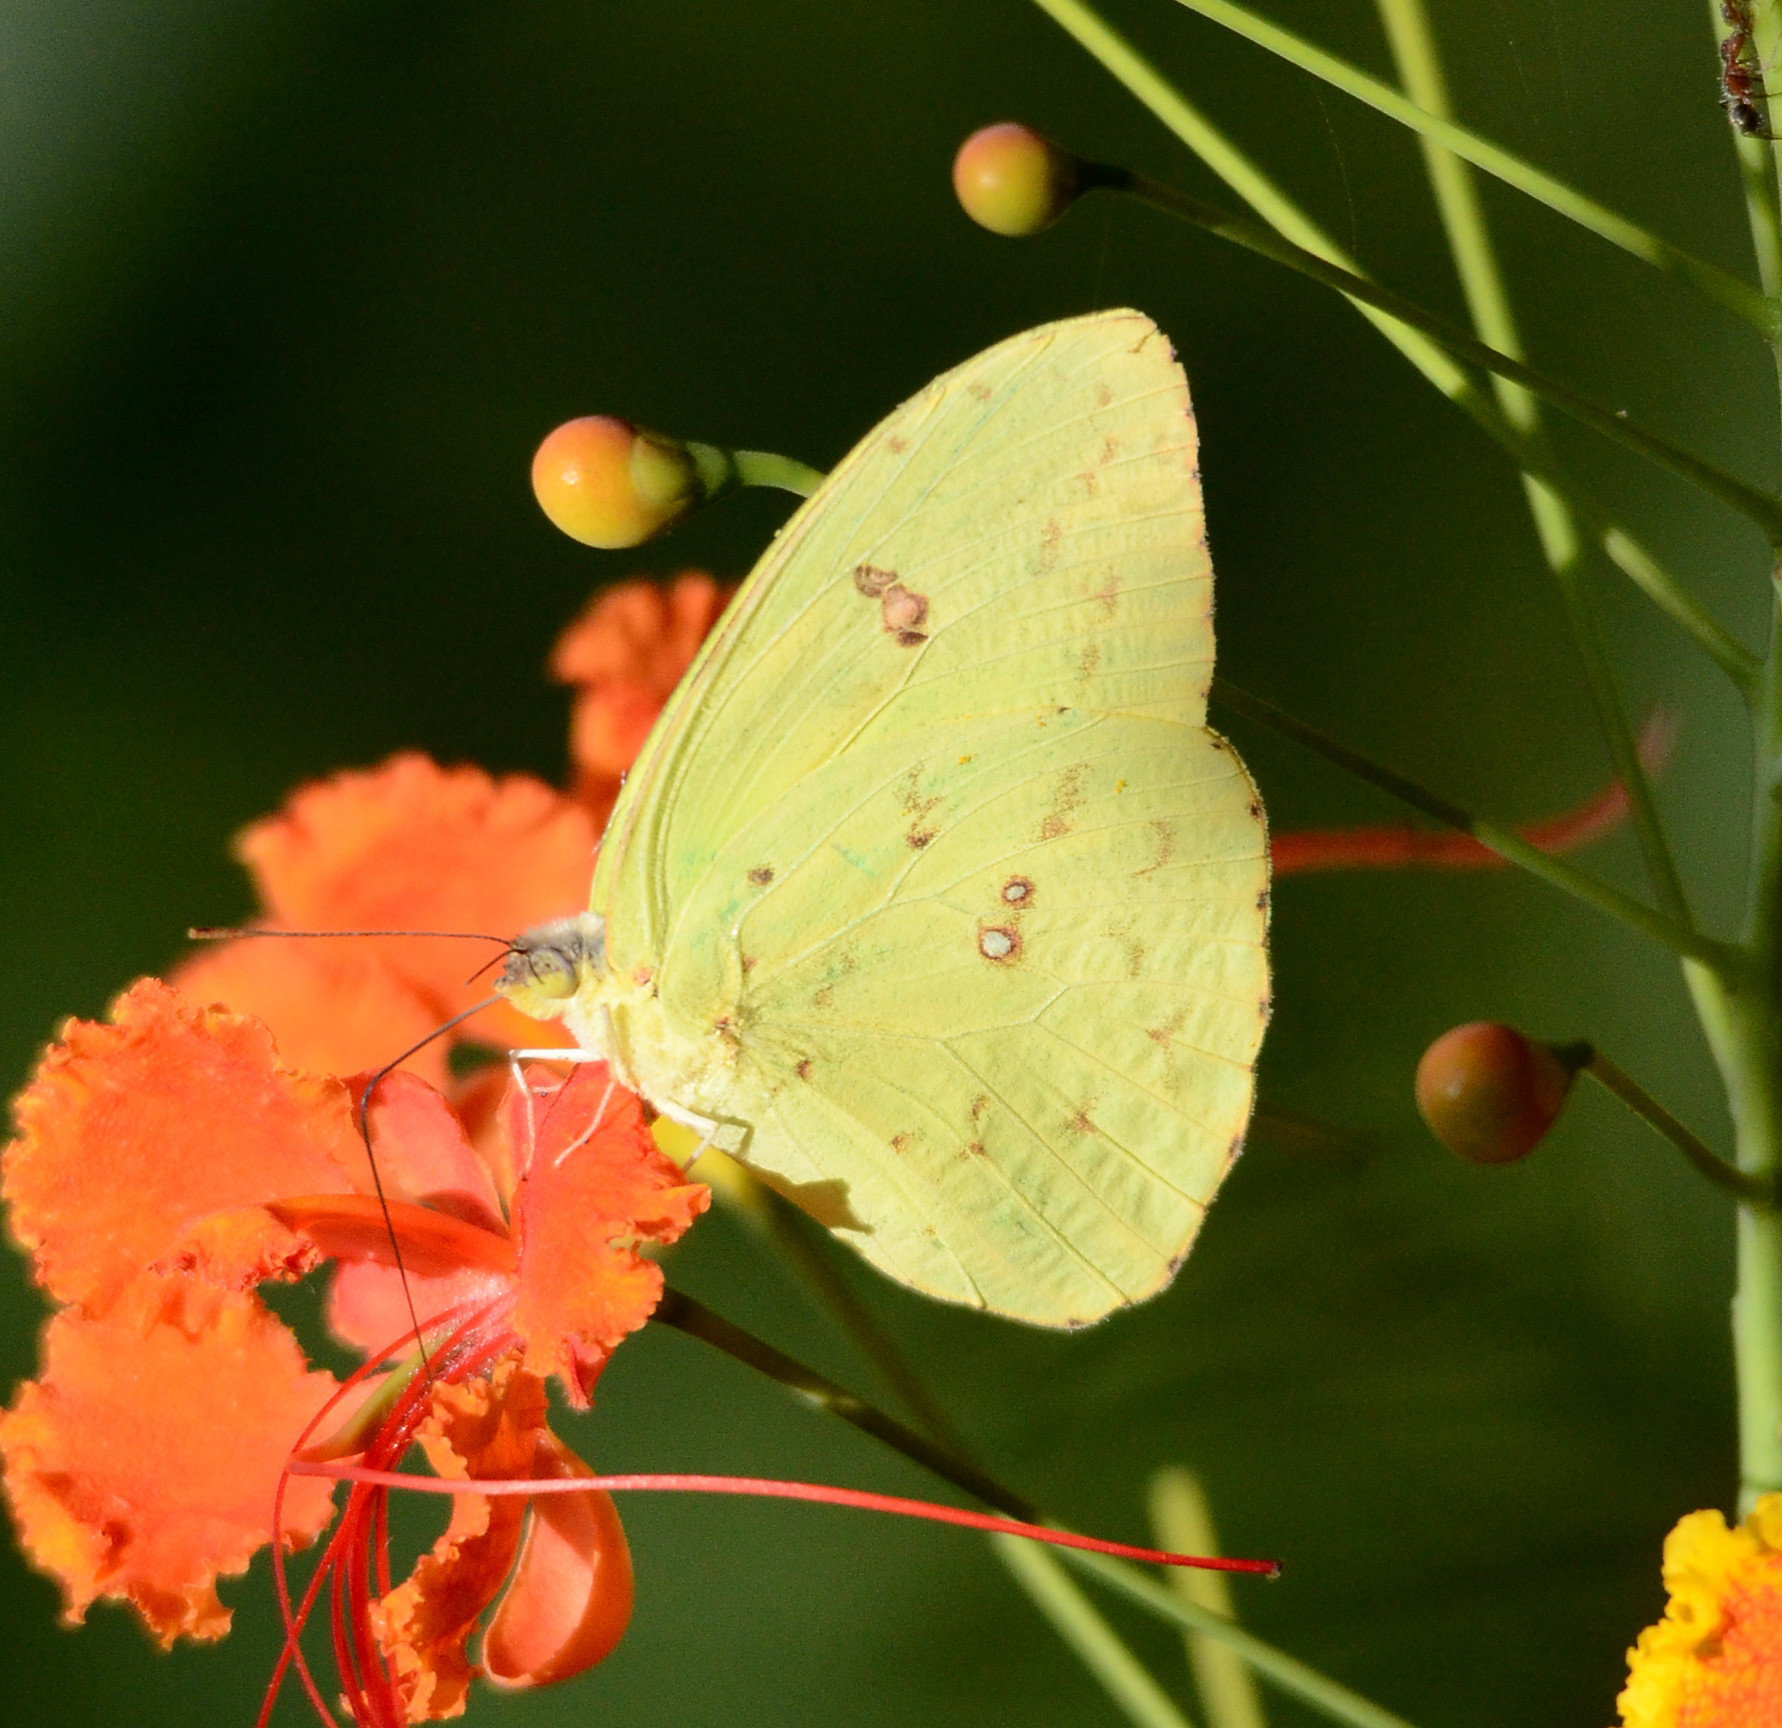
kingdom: Animalia
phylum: Arthropoda
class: Insecta
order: Lepidoptera
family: Pieridae
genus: Phoebis
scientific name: Phoebis sennae
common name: Cloudless sulphur
